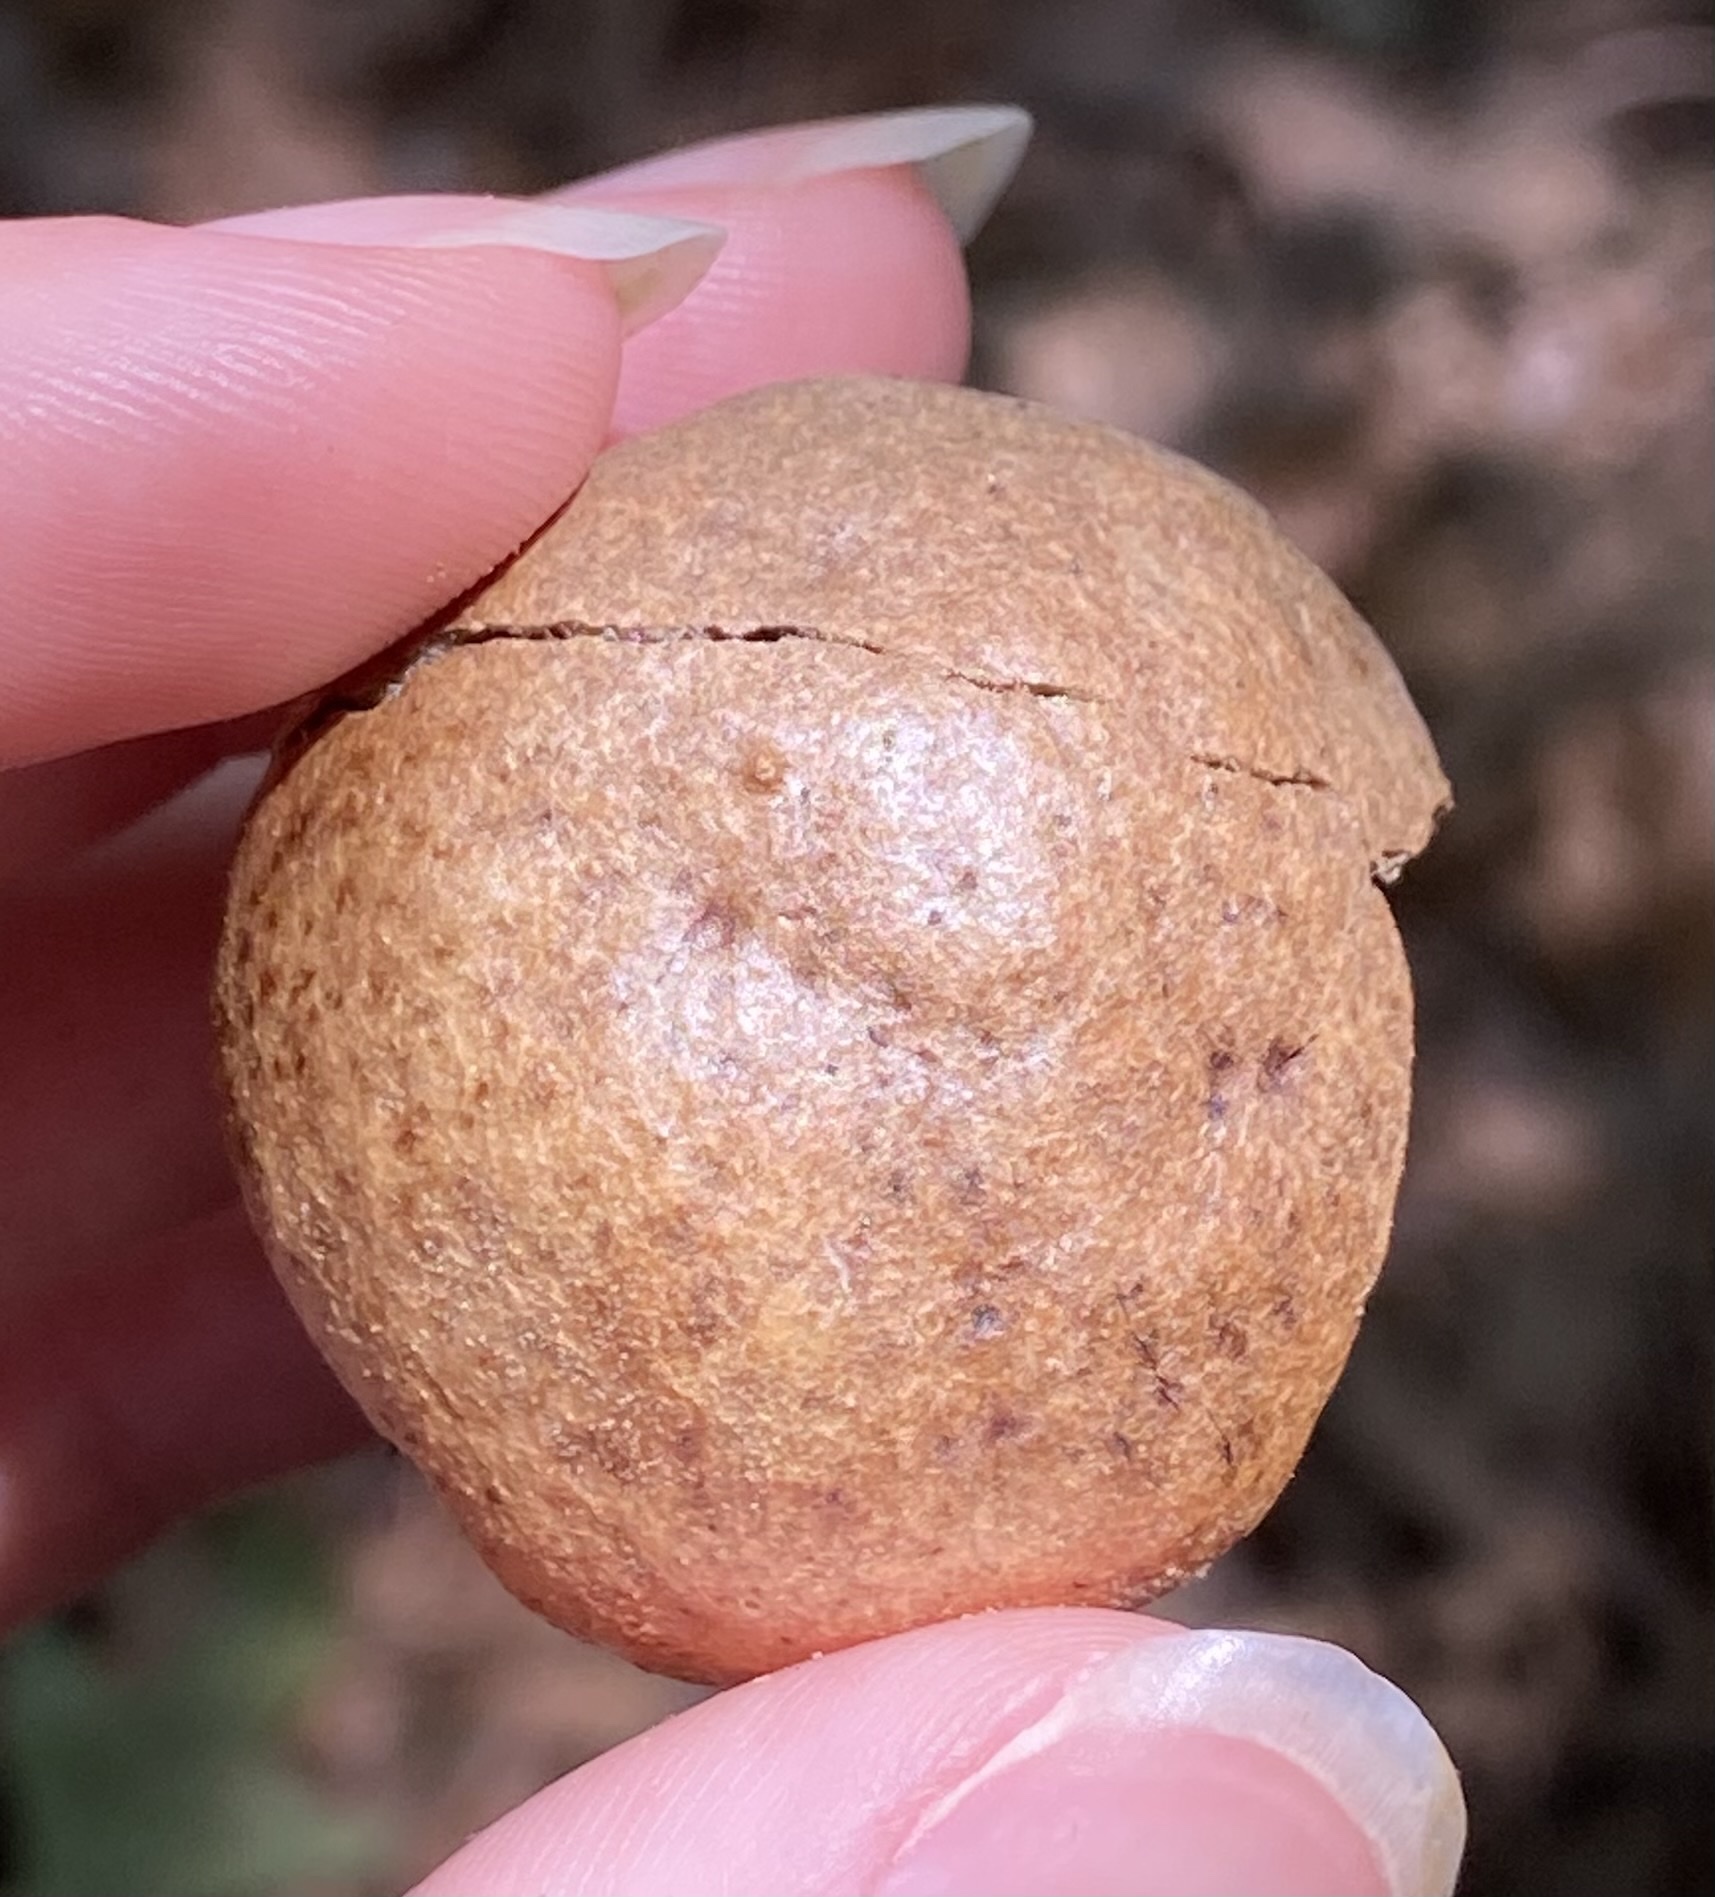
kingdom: Animalia
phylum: Arthropoda
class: Insecta
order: Hymenoptera
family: Cynipidae
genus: Amphibolips
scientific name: Amphibolips
